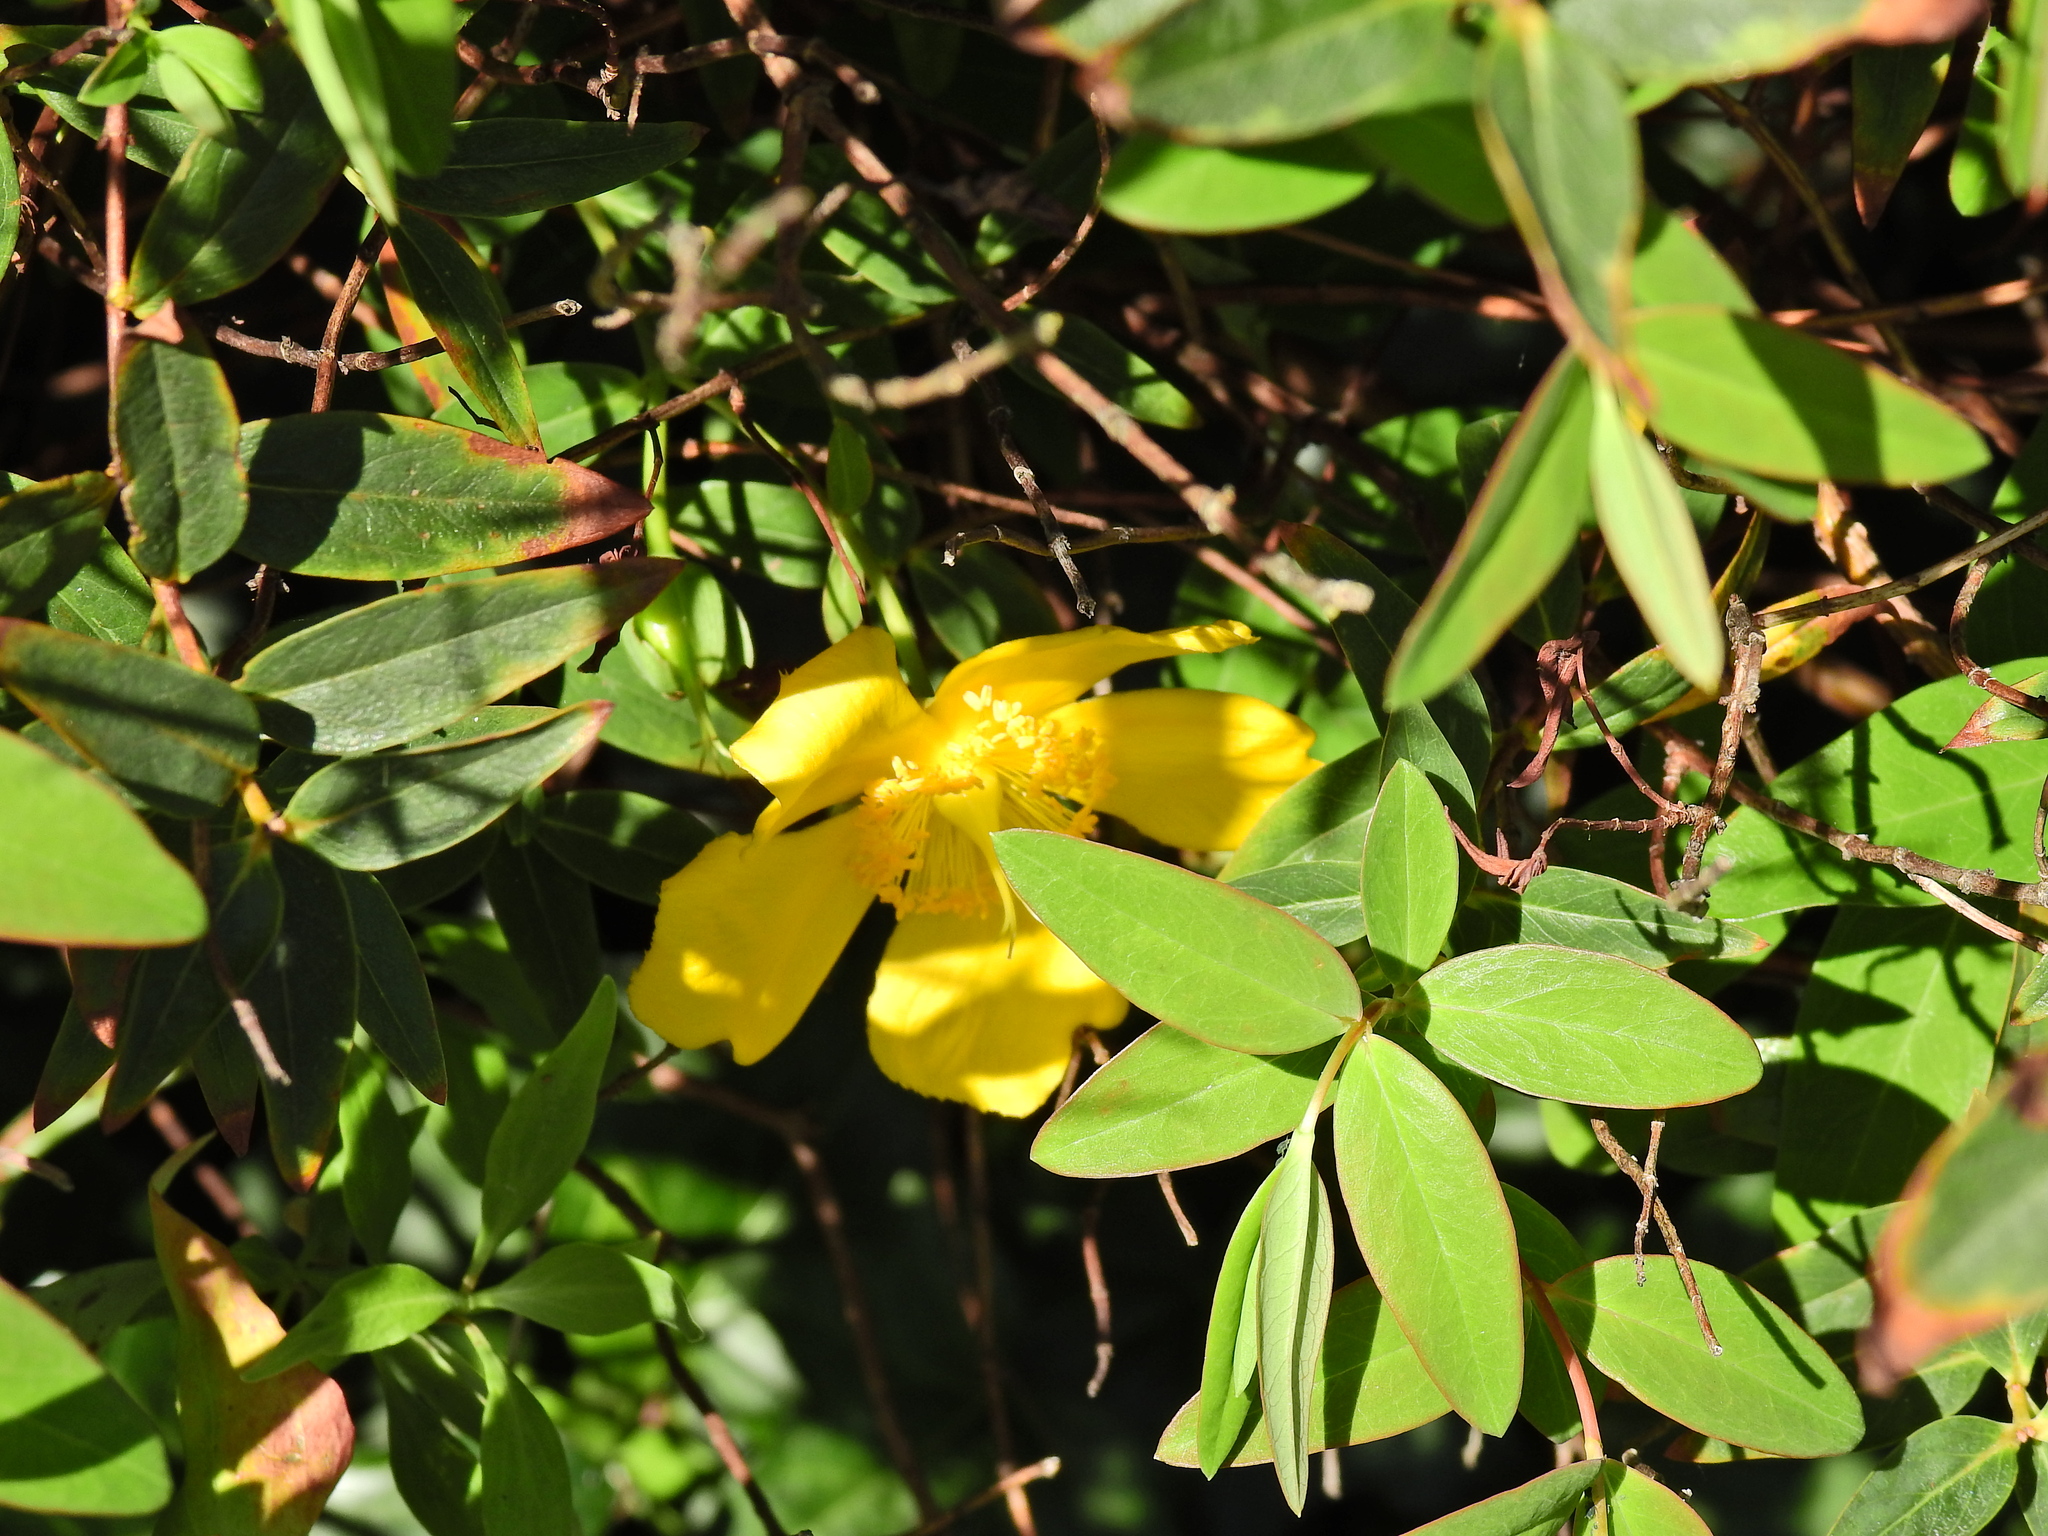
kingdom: Plantae
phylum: Tracheophyta
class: Magnoliopsida
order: Malpighiales
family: Hypericaceae
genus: Hypericum
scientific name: Hypericum hidcoteense
